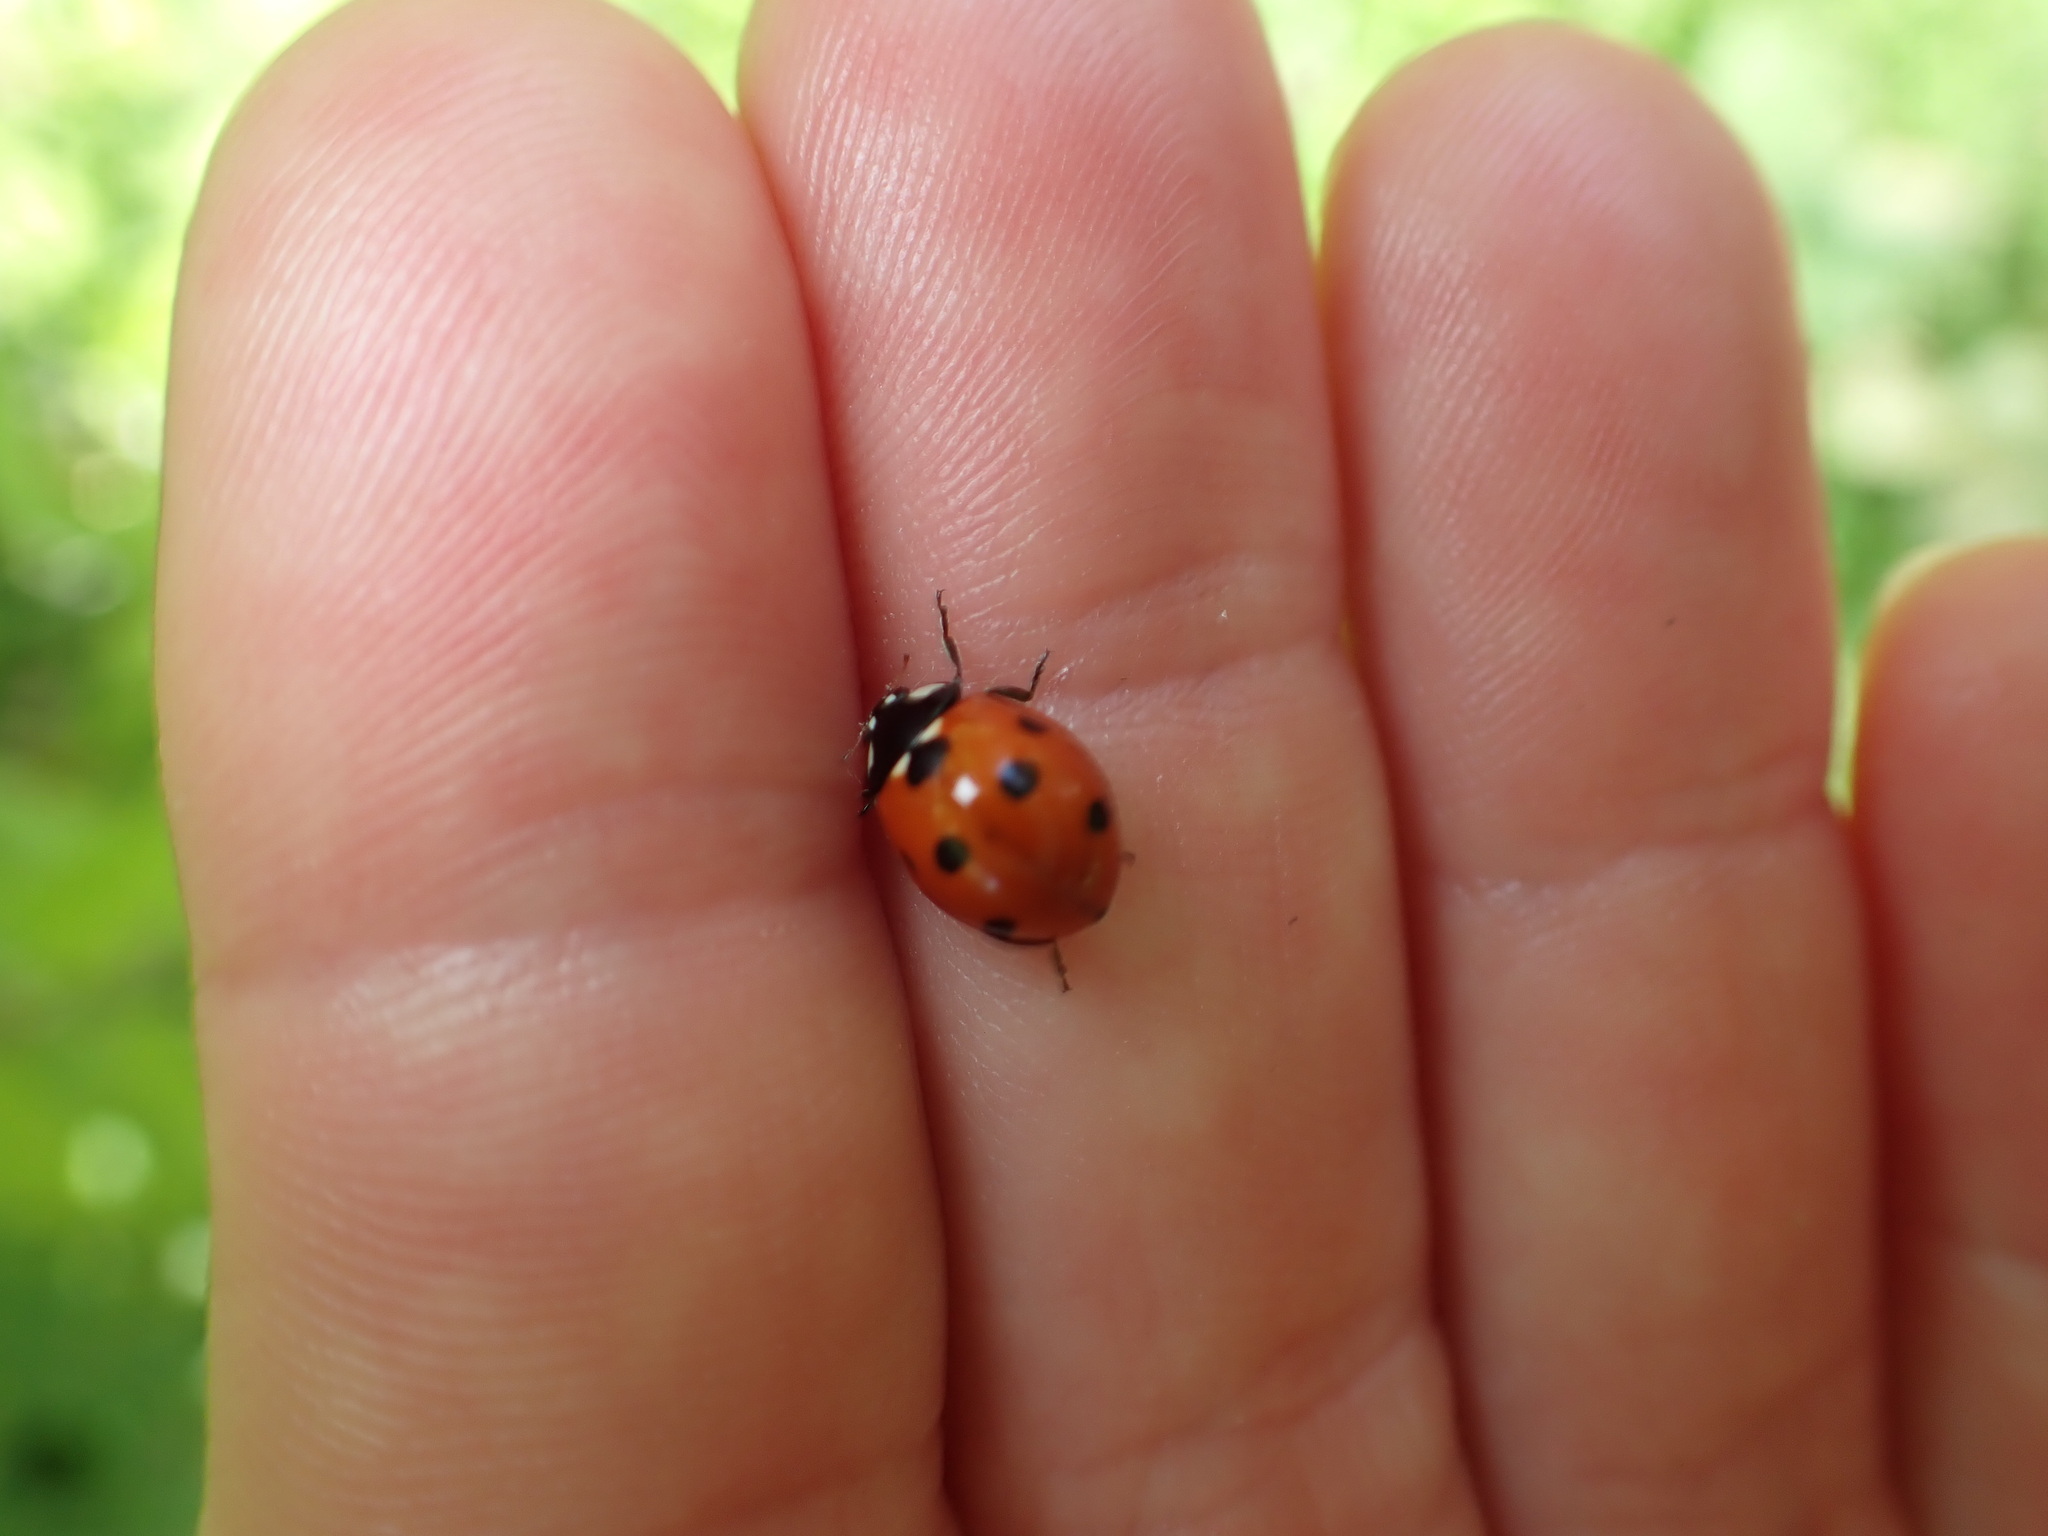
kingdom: Animalia
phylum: Arthropoda
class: Insecta
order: Coleoptera
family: Coccinellidae
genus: Coccinella
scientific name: Coccinella septempunctata
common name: Sevenspotted lady beetle
